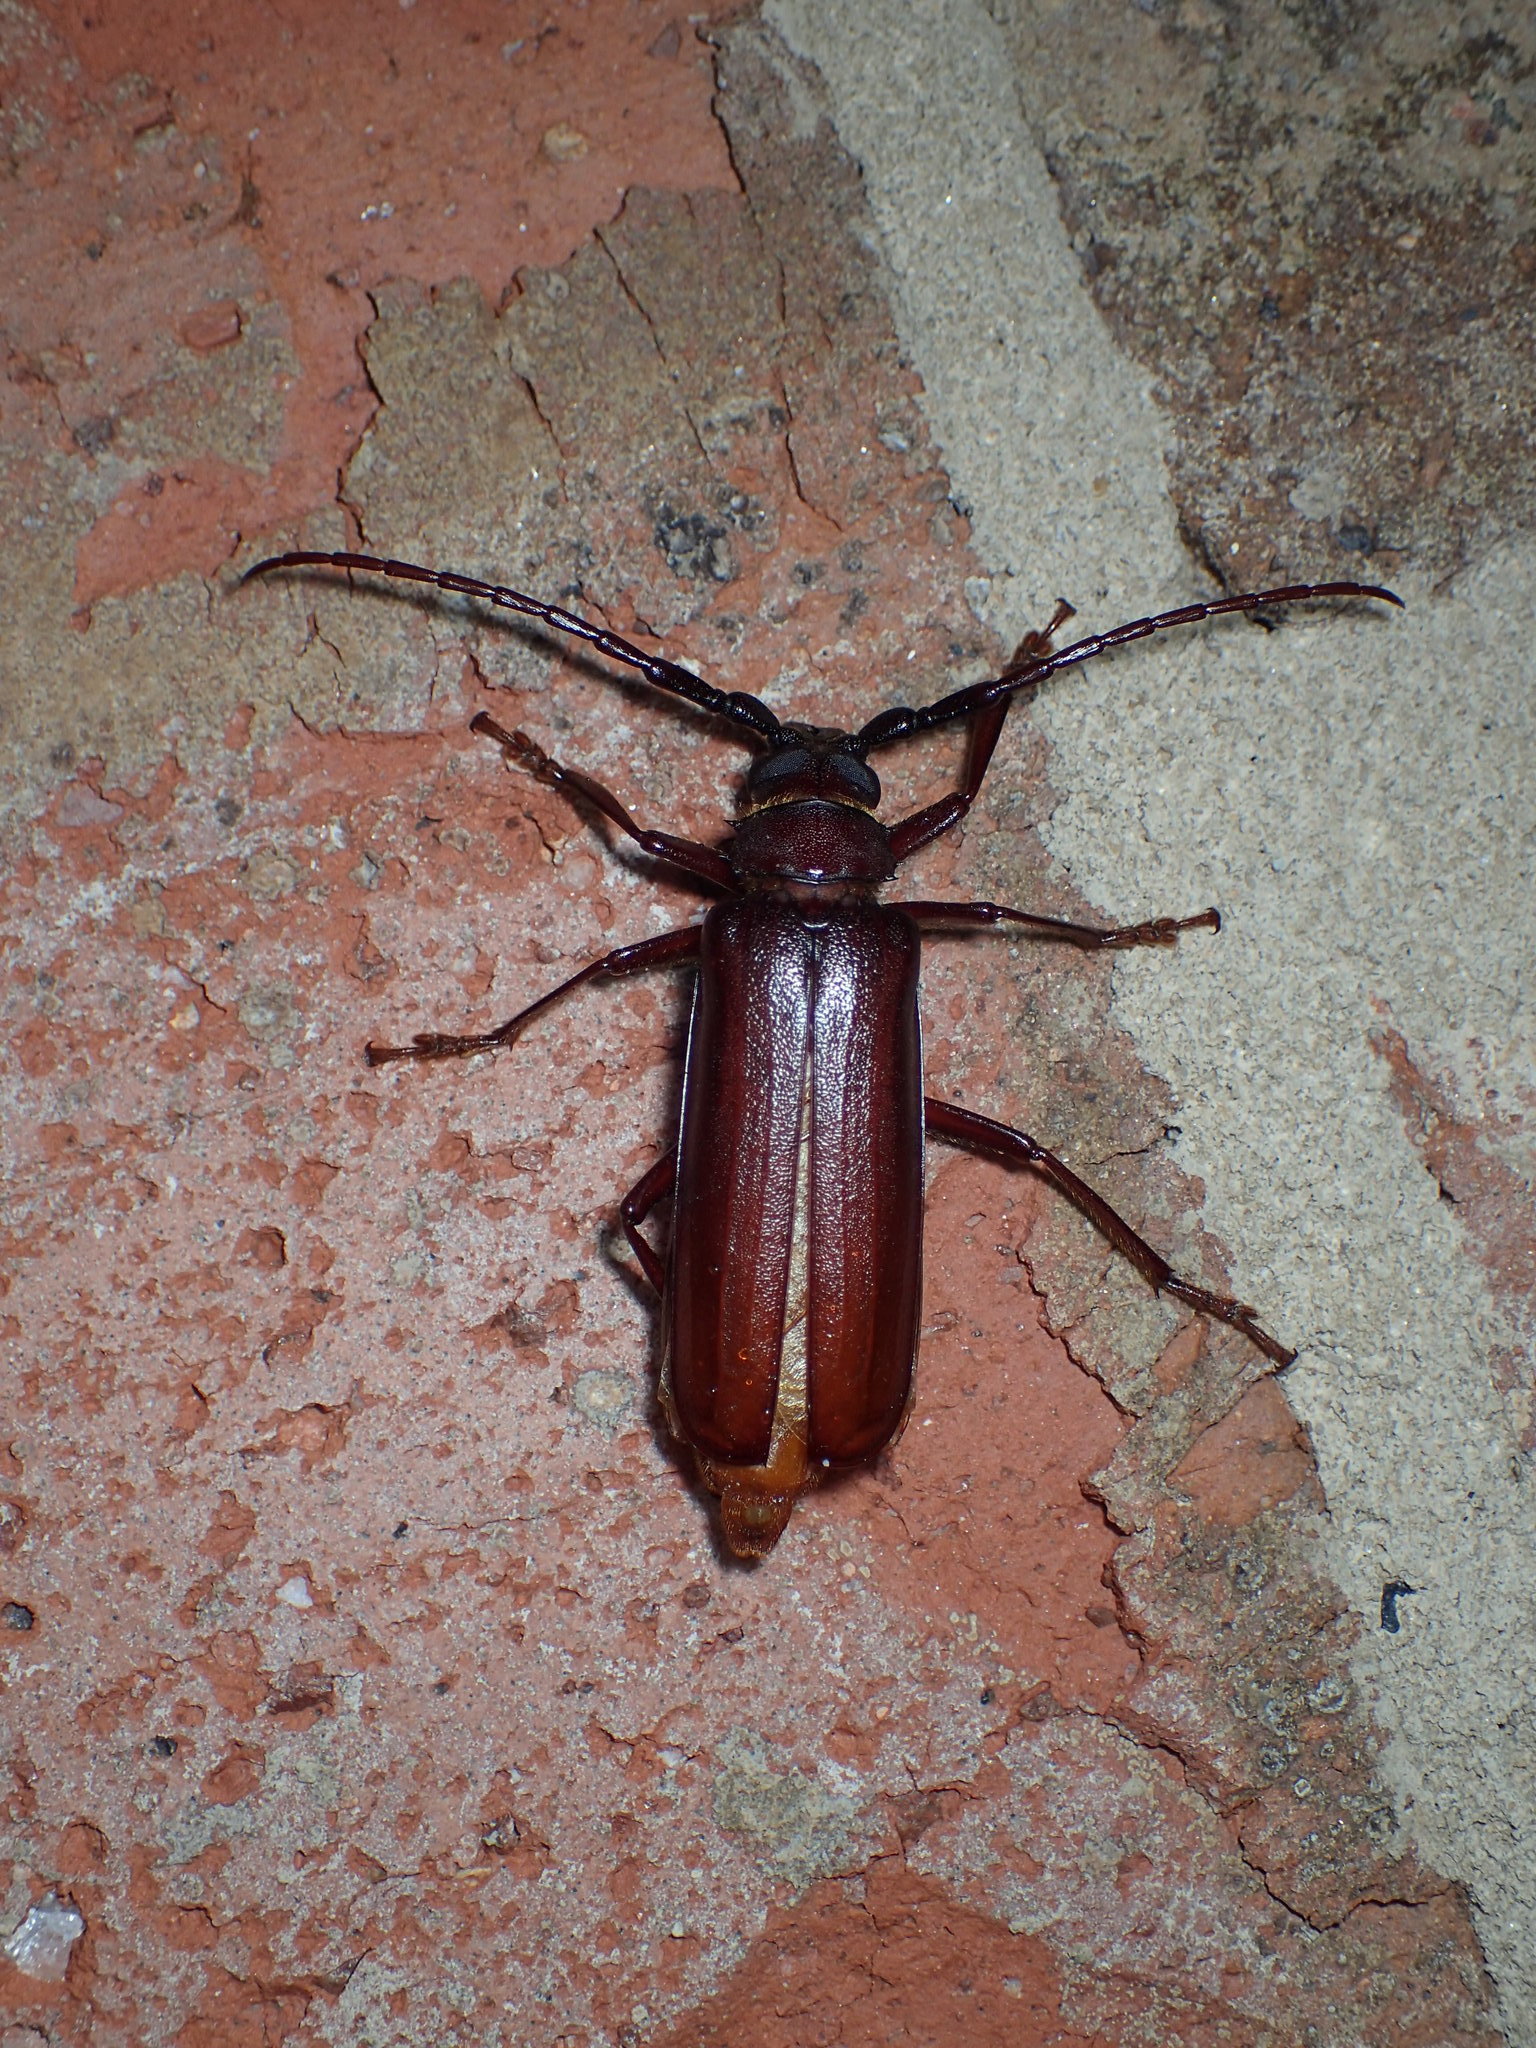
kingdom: Animalia
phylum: Arthropoda
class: Insecta
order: Coleoptera
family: Cerambycidae
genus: Orthosoma
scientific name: Orthosoma brunneum
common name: Brown prionid beetle
